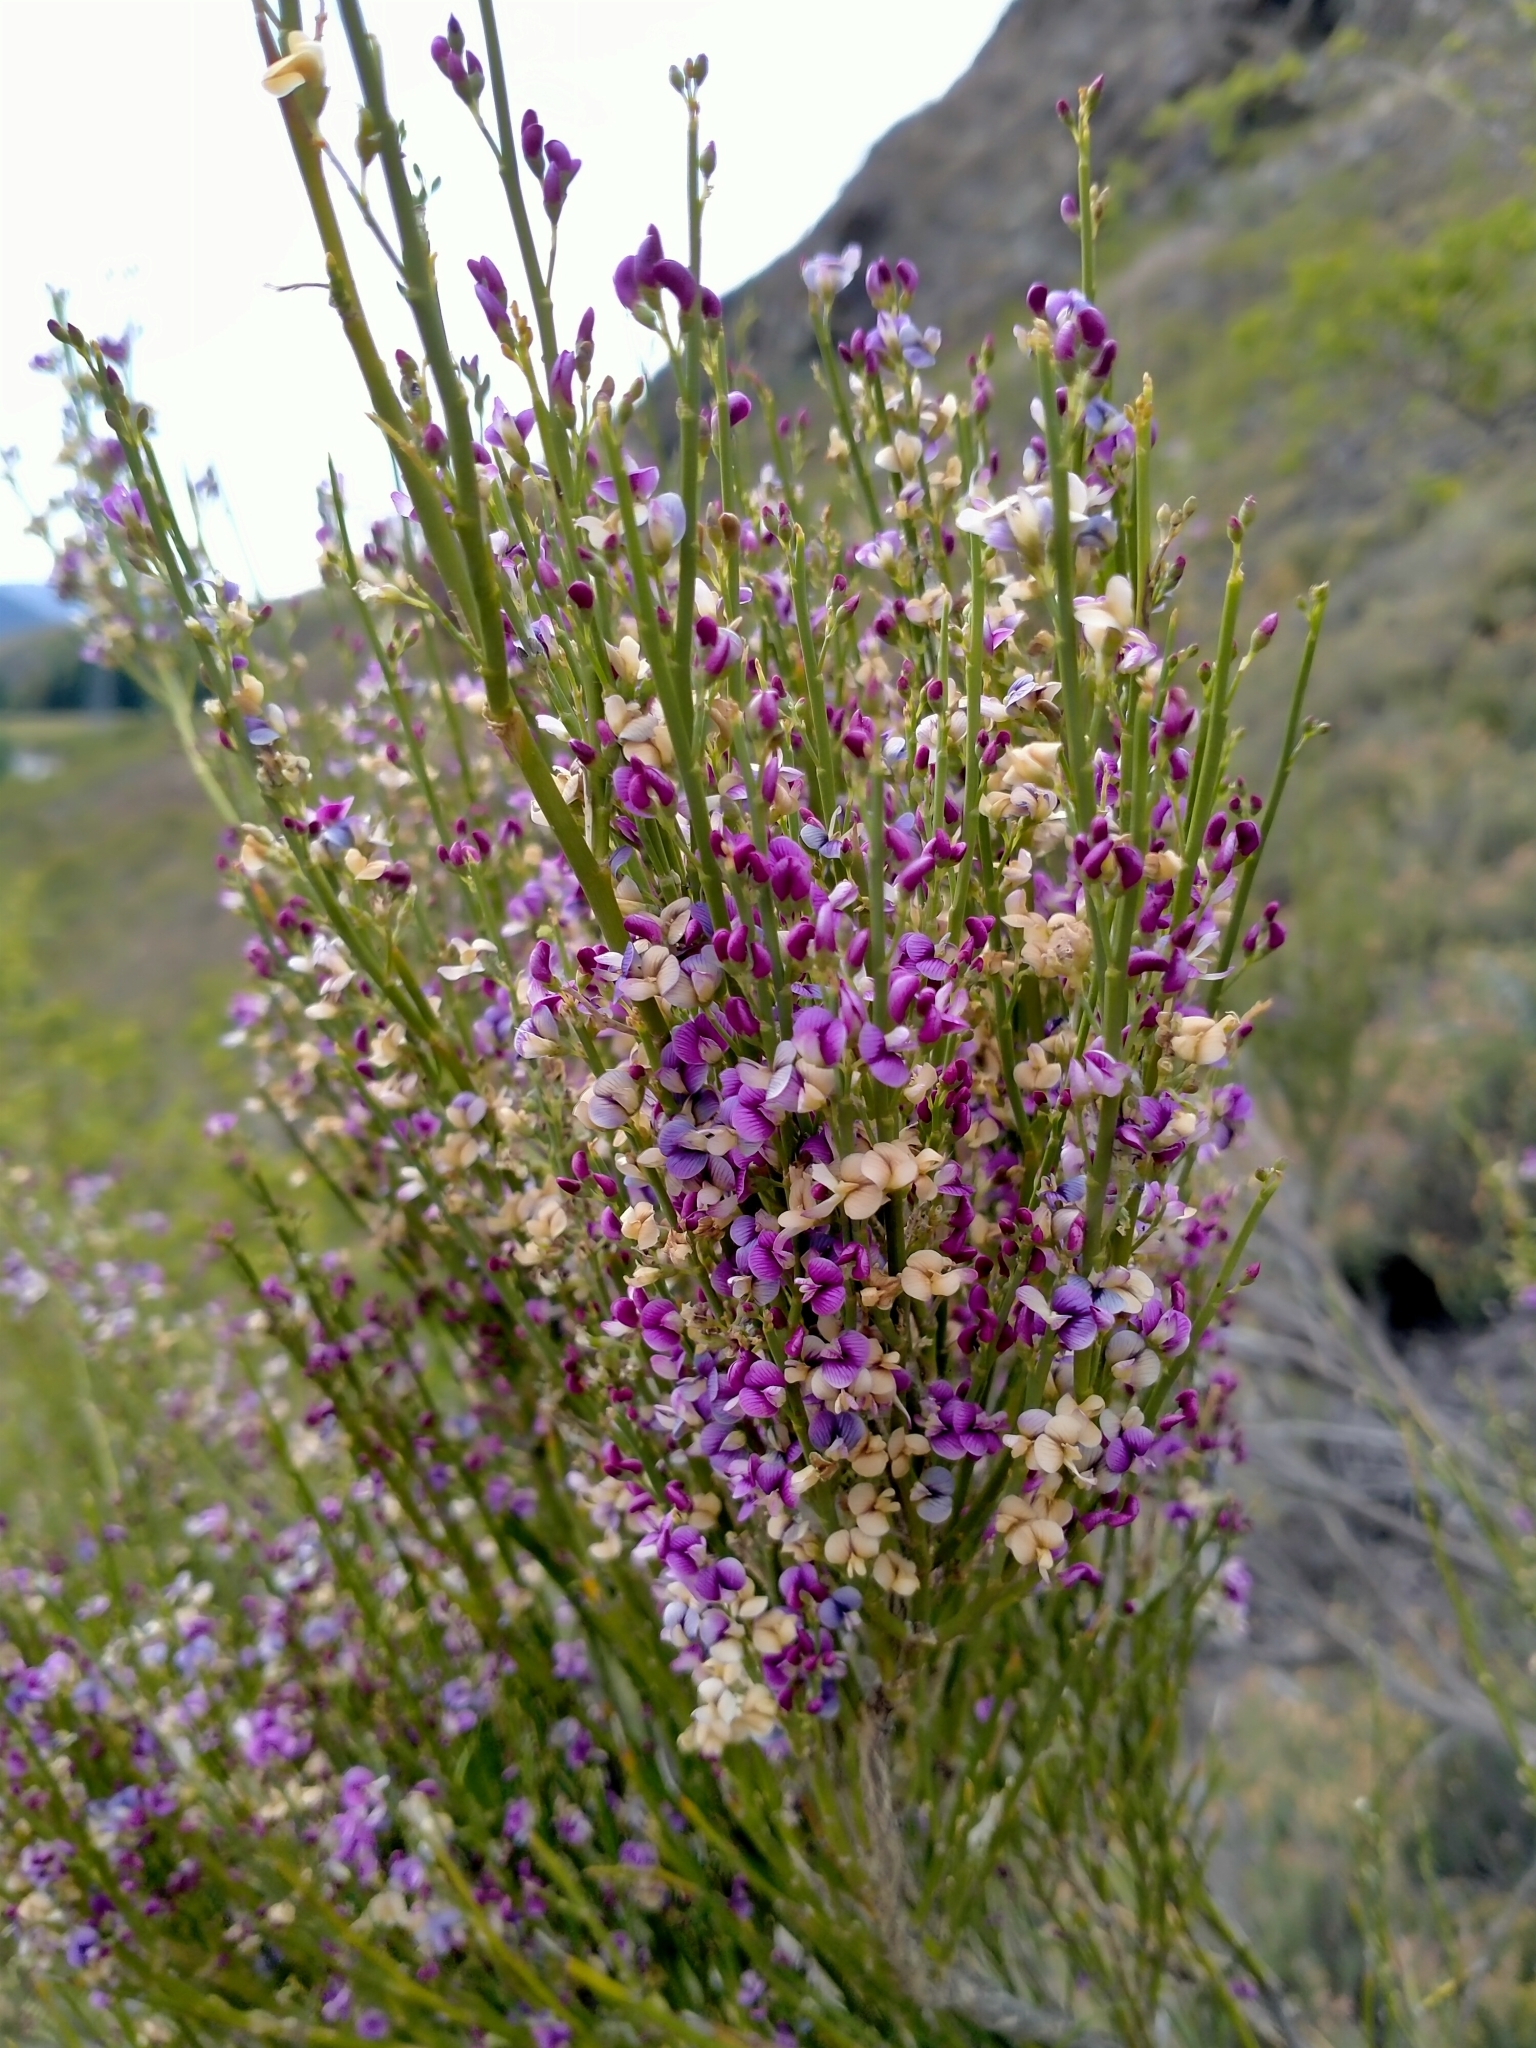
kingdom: Plantae
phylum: Tracheophyta
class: Magnoliopsida
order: Fabales
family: Fabaceae
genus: Carmichaelia
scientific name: Carmichaelia compacta
